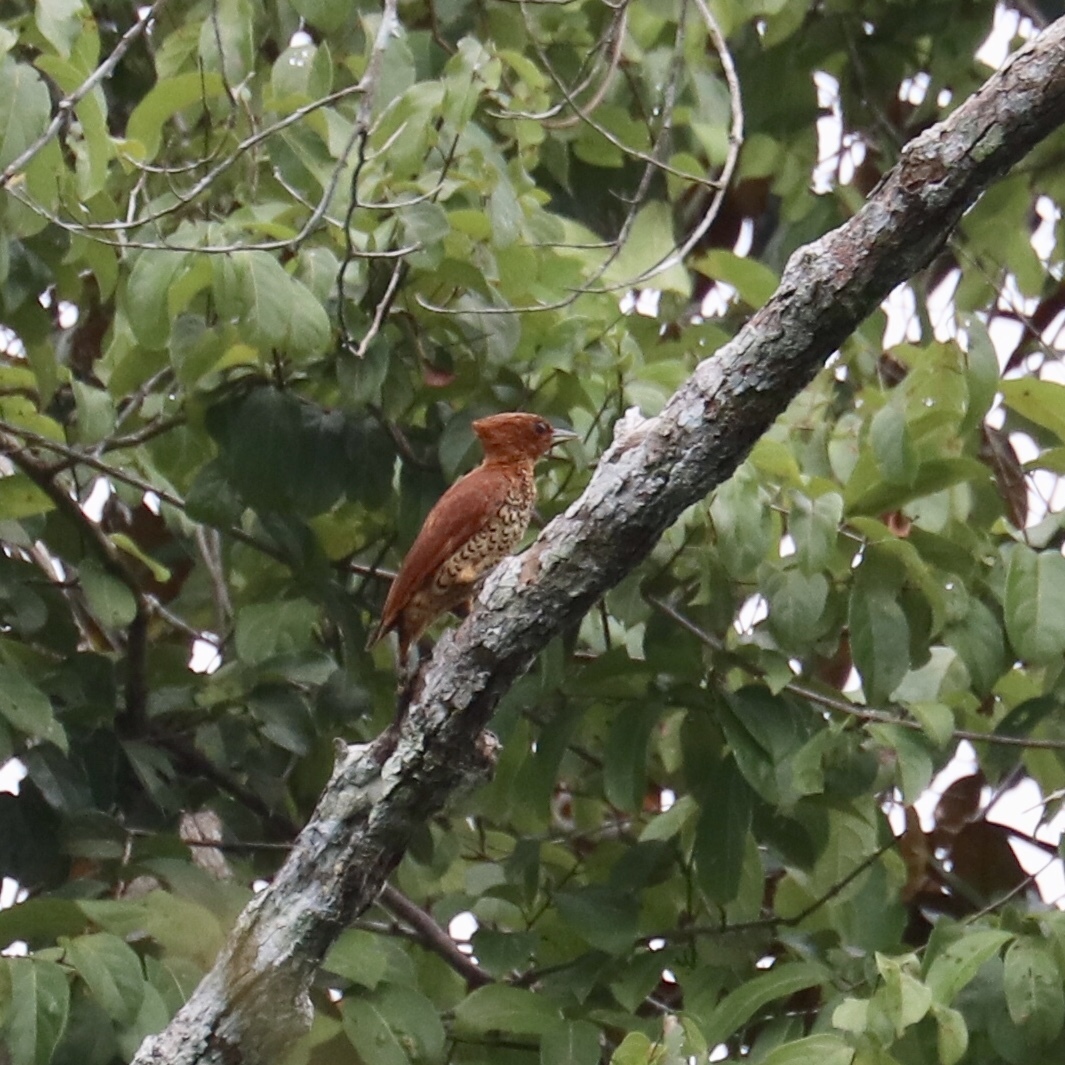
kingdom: Animalia
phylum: Chordata
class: Aves
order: Piciformes
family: Picidae
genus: Celeus
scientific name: Celeus loricatus
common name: Cinnamon woodpecker
